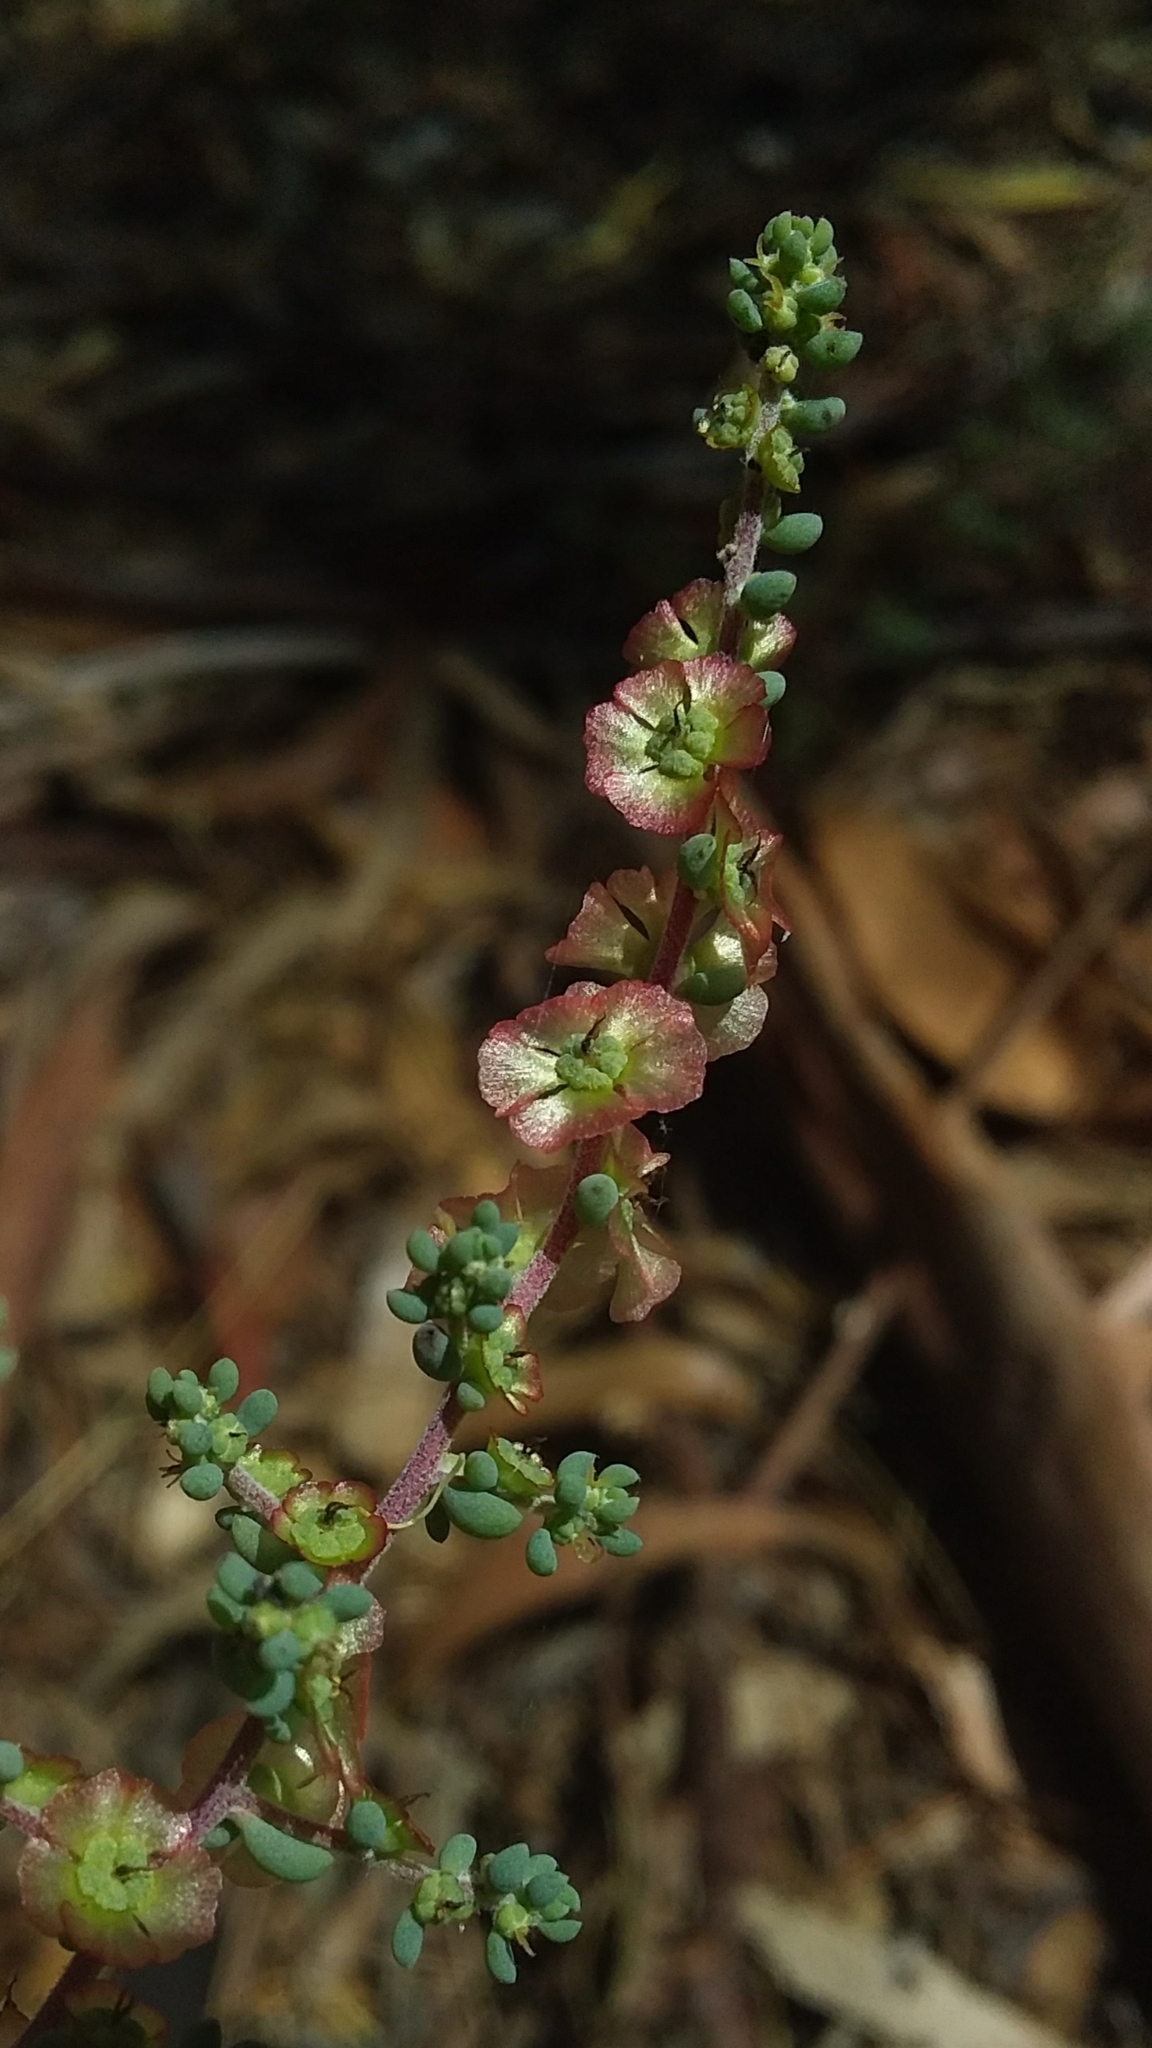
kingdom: Plantae
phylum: Tracheophyta
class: Magnoliopsida
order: Caryophyllales
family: Amaranthaceae
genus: Maireana
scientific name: Maireana brevifolia
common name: Eastern cottonbush
